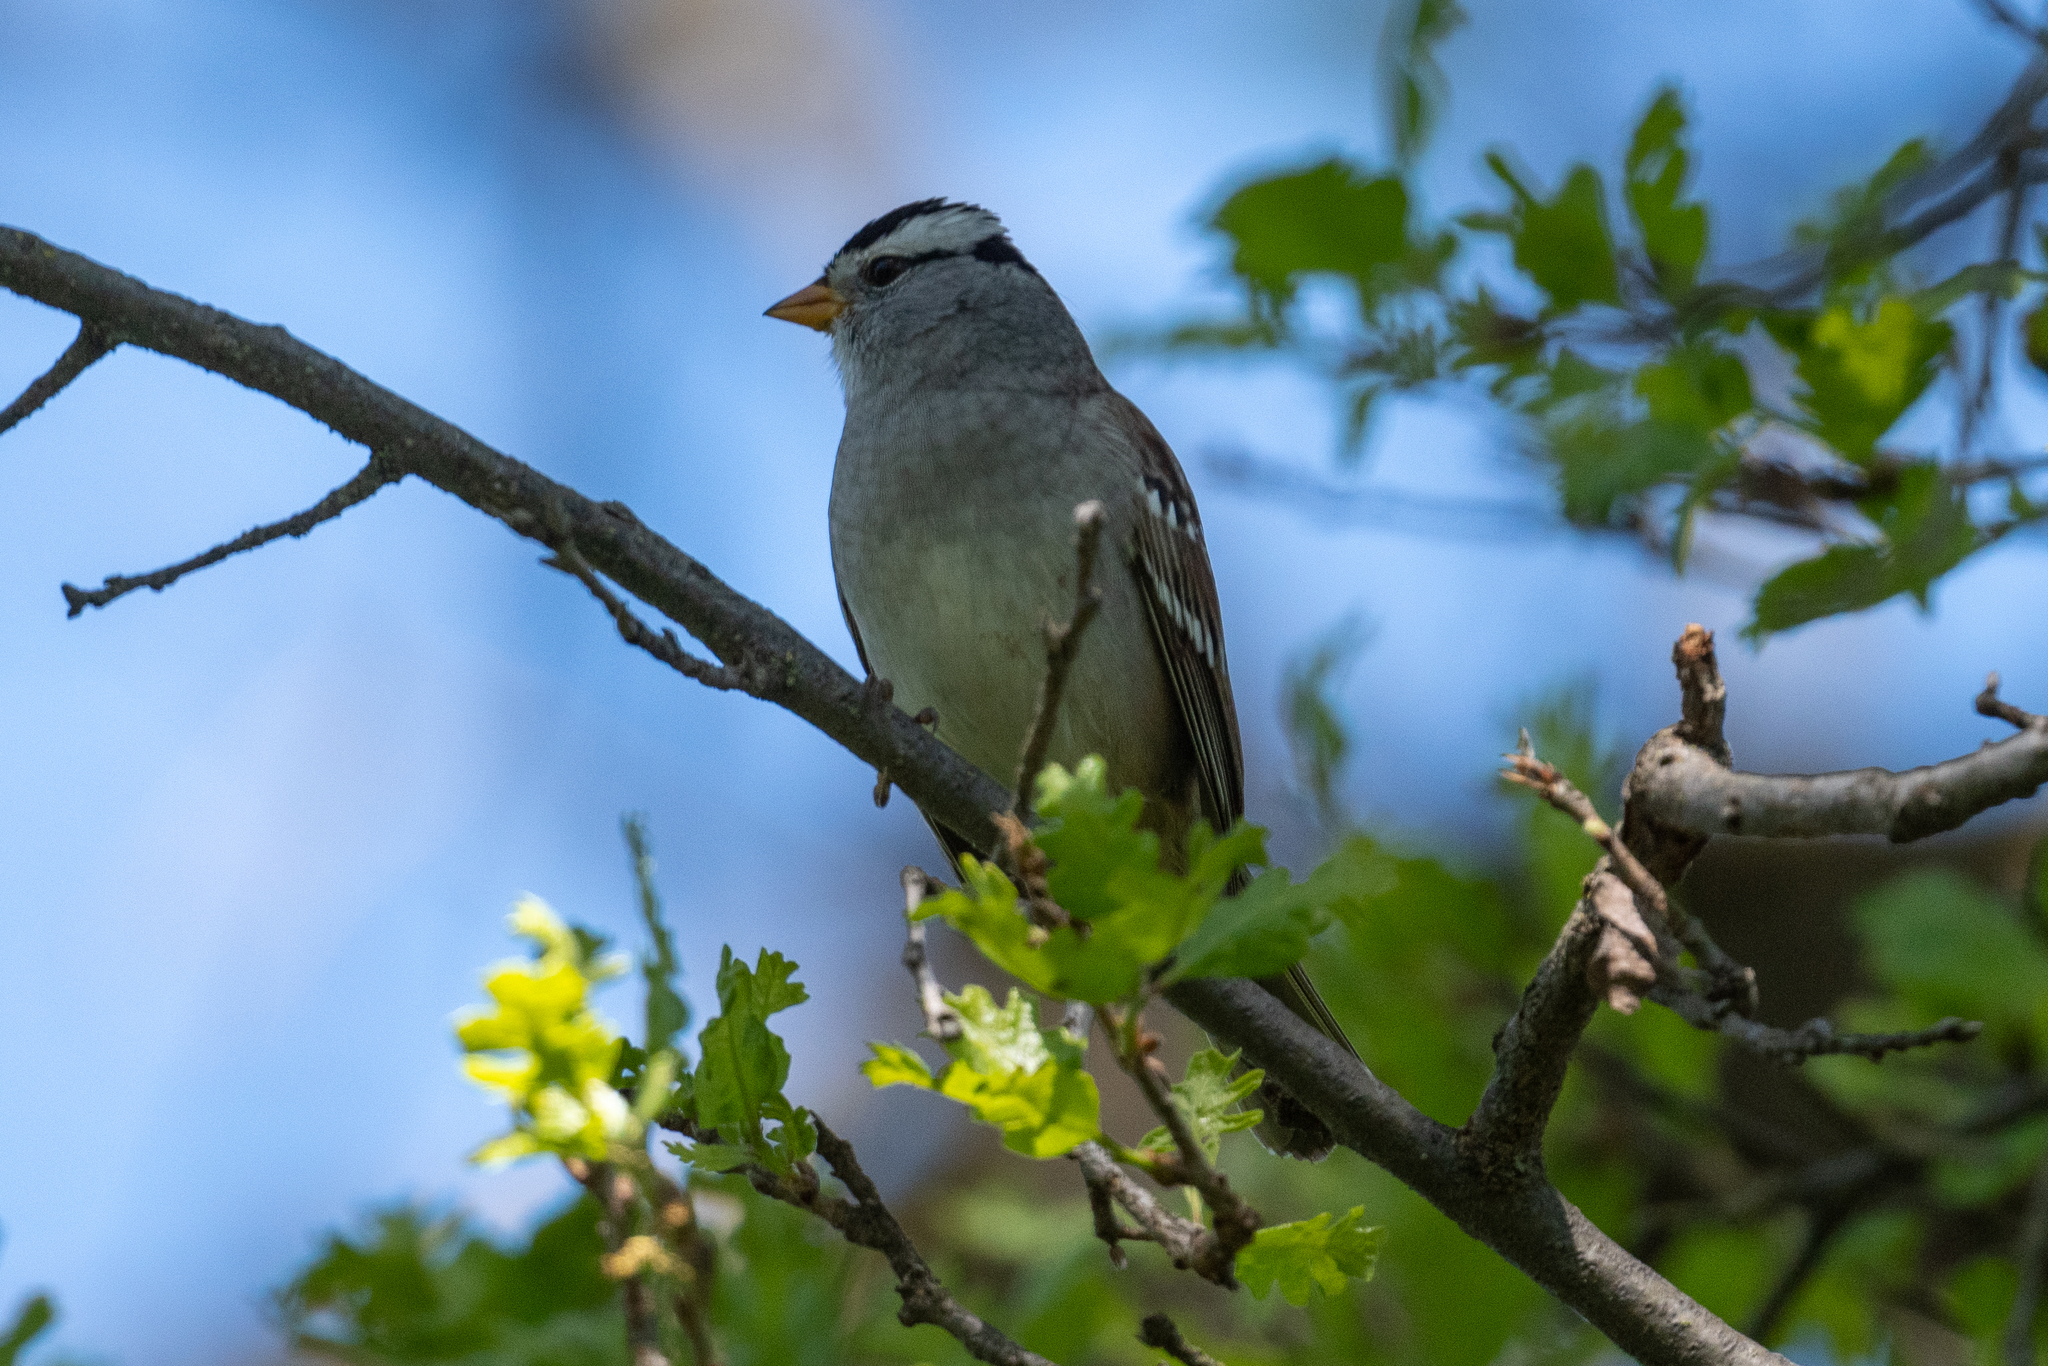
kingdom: Animalia
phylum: Chordata
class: Aves
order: Passeriformes
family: Passerellidae
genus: Zonotrichia
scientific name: Zonotrichia leucophrys
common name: White-crowned sparrow
